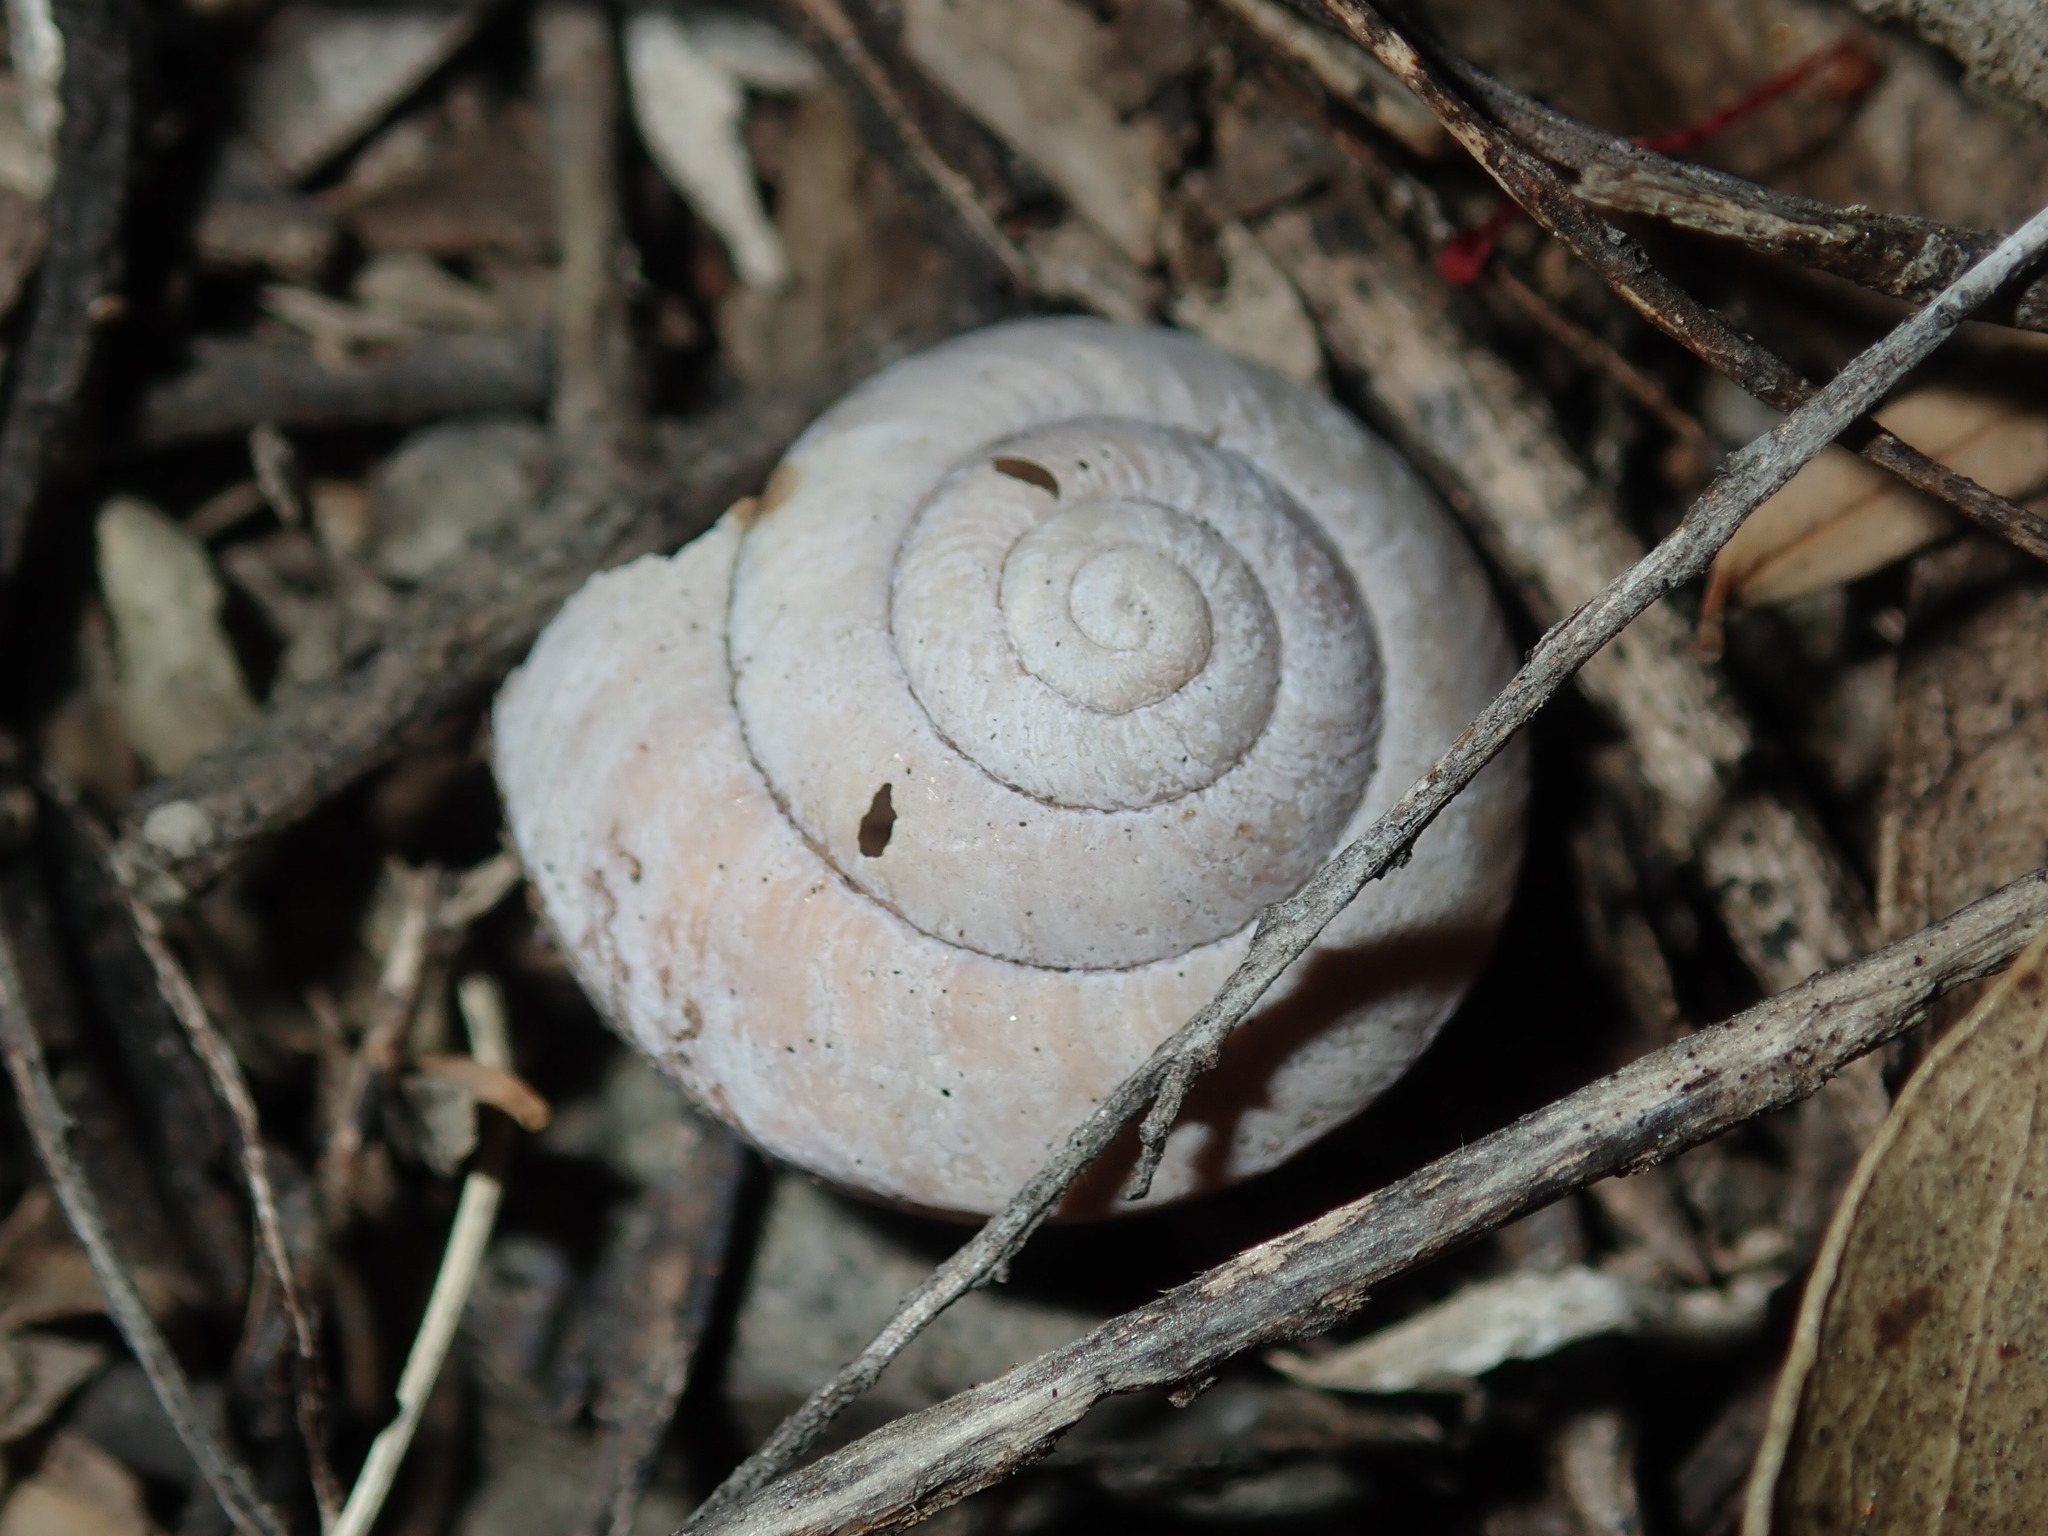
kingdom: Animalia
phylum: Mollusca
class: Gastropoda
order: Stylommatophora
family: Camaenidae
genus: Sauroconcha
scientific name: Sauroconcha sheai
